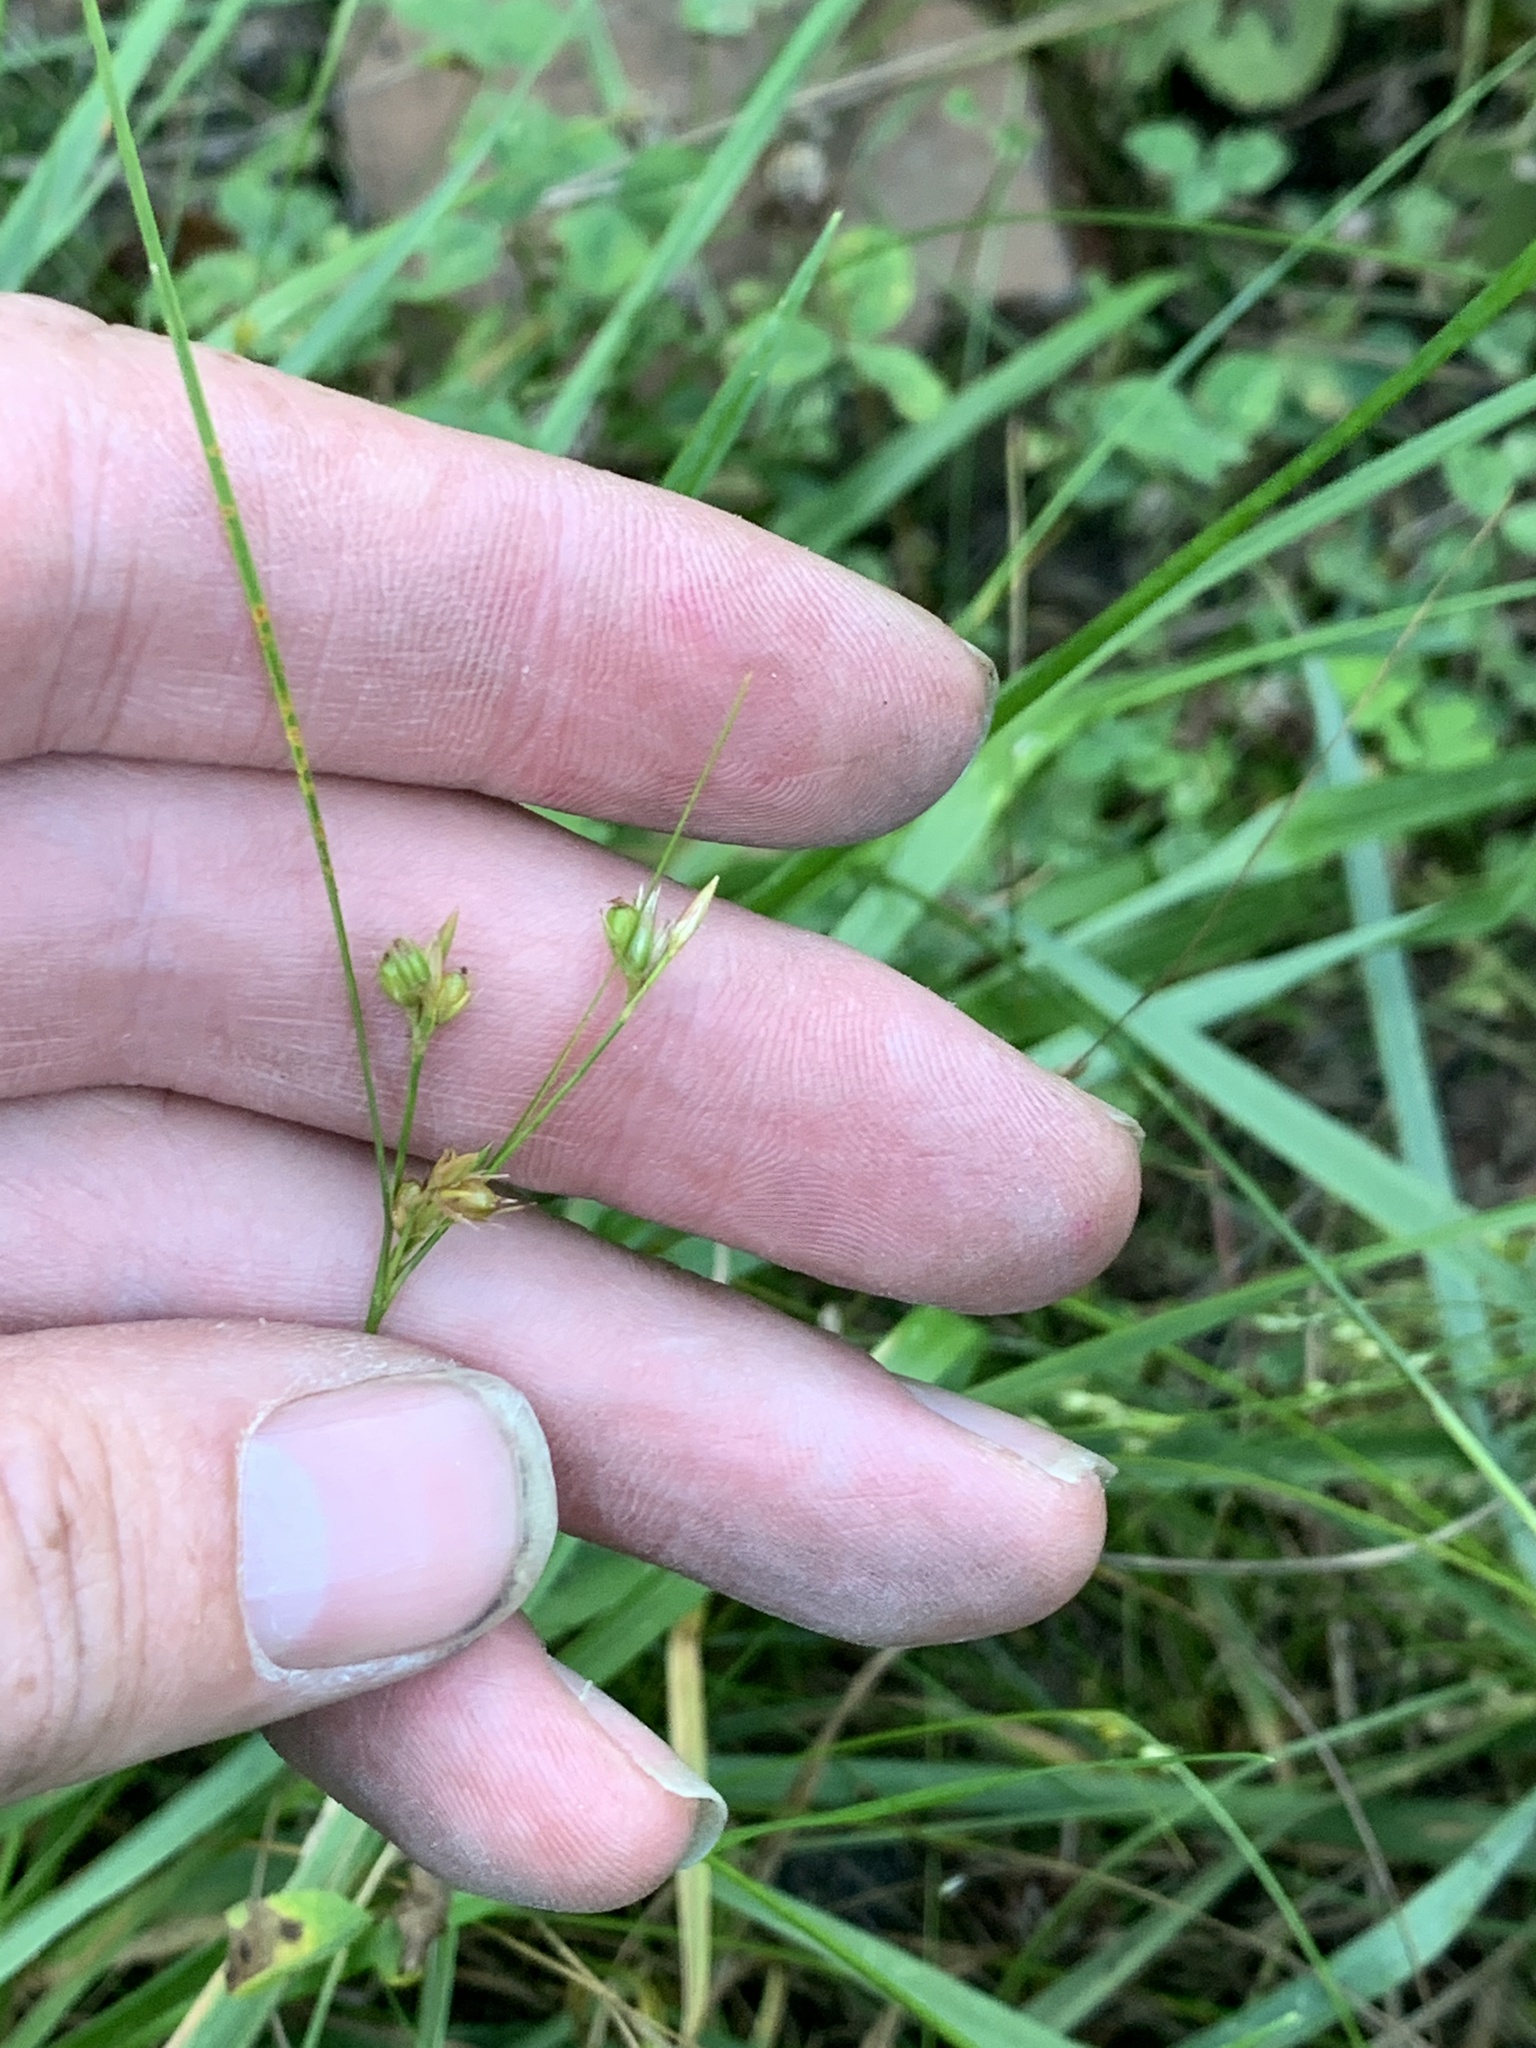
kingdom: Plantae
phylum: Tracheophyta
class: Liliopsida
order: Poales
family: Juncaceae
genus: Juncus
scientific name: Juncus tenuis
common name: Slender rush
